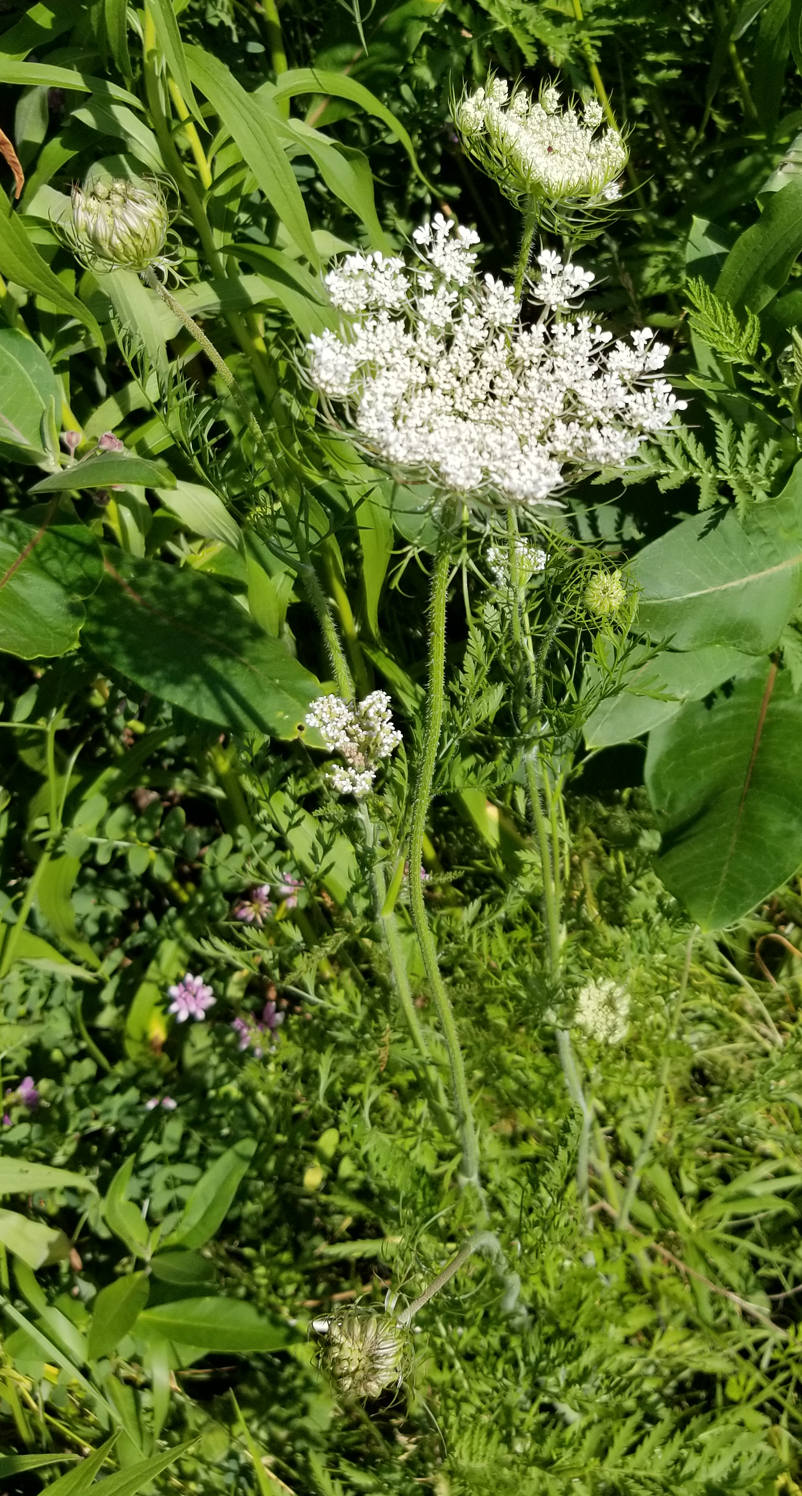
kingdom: Plantae
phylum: Tracheophyta
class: Magnoliopsida
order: Apiales
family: Apiaceae
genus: Daucus
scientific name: Daucus carota
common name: Wild carrot
